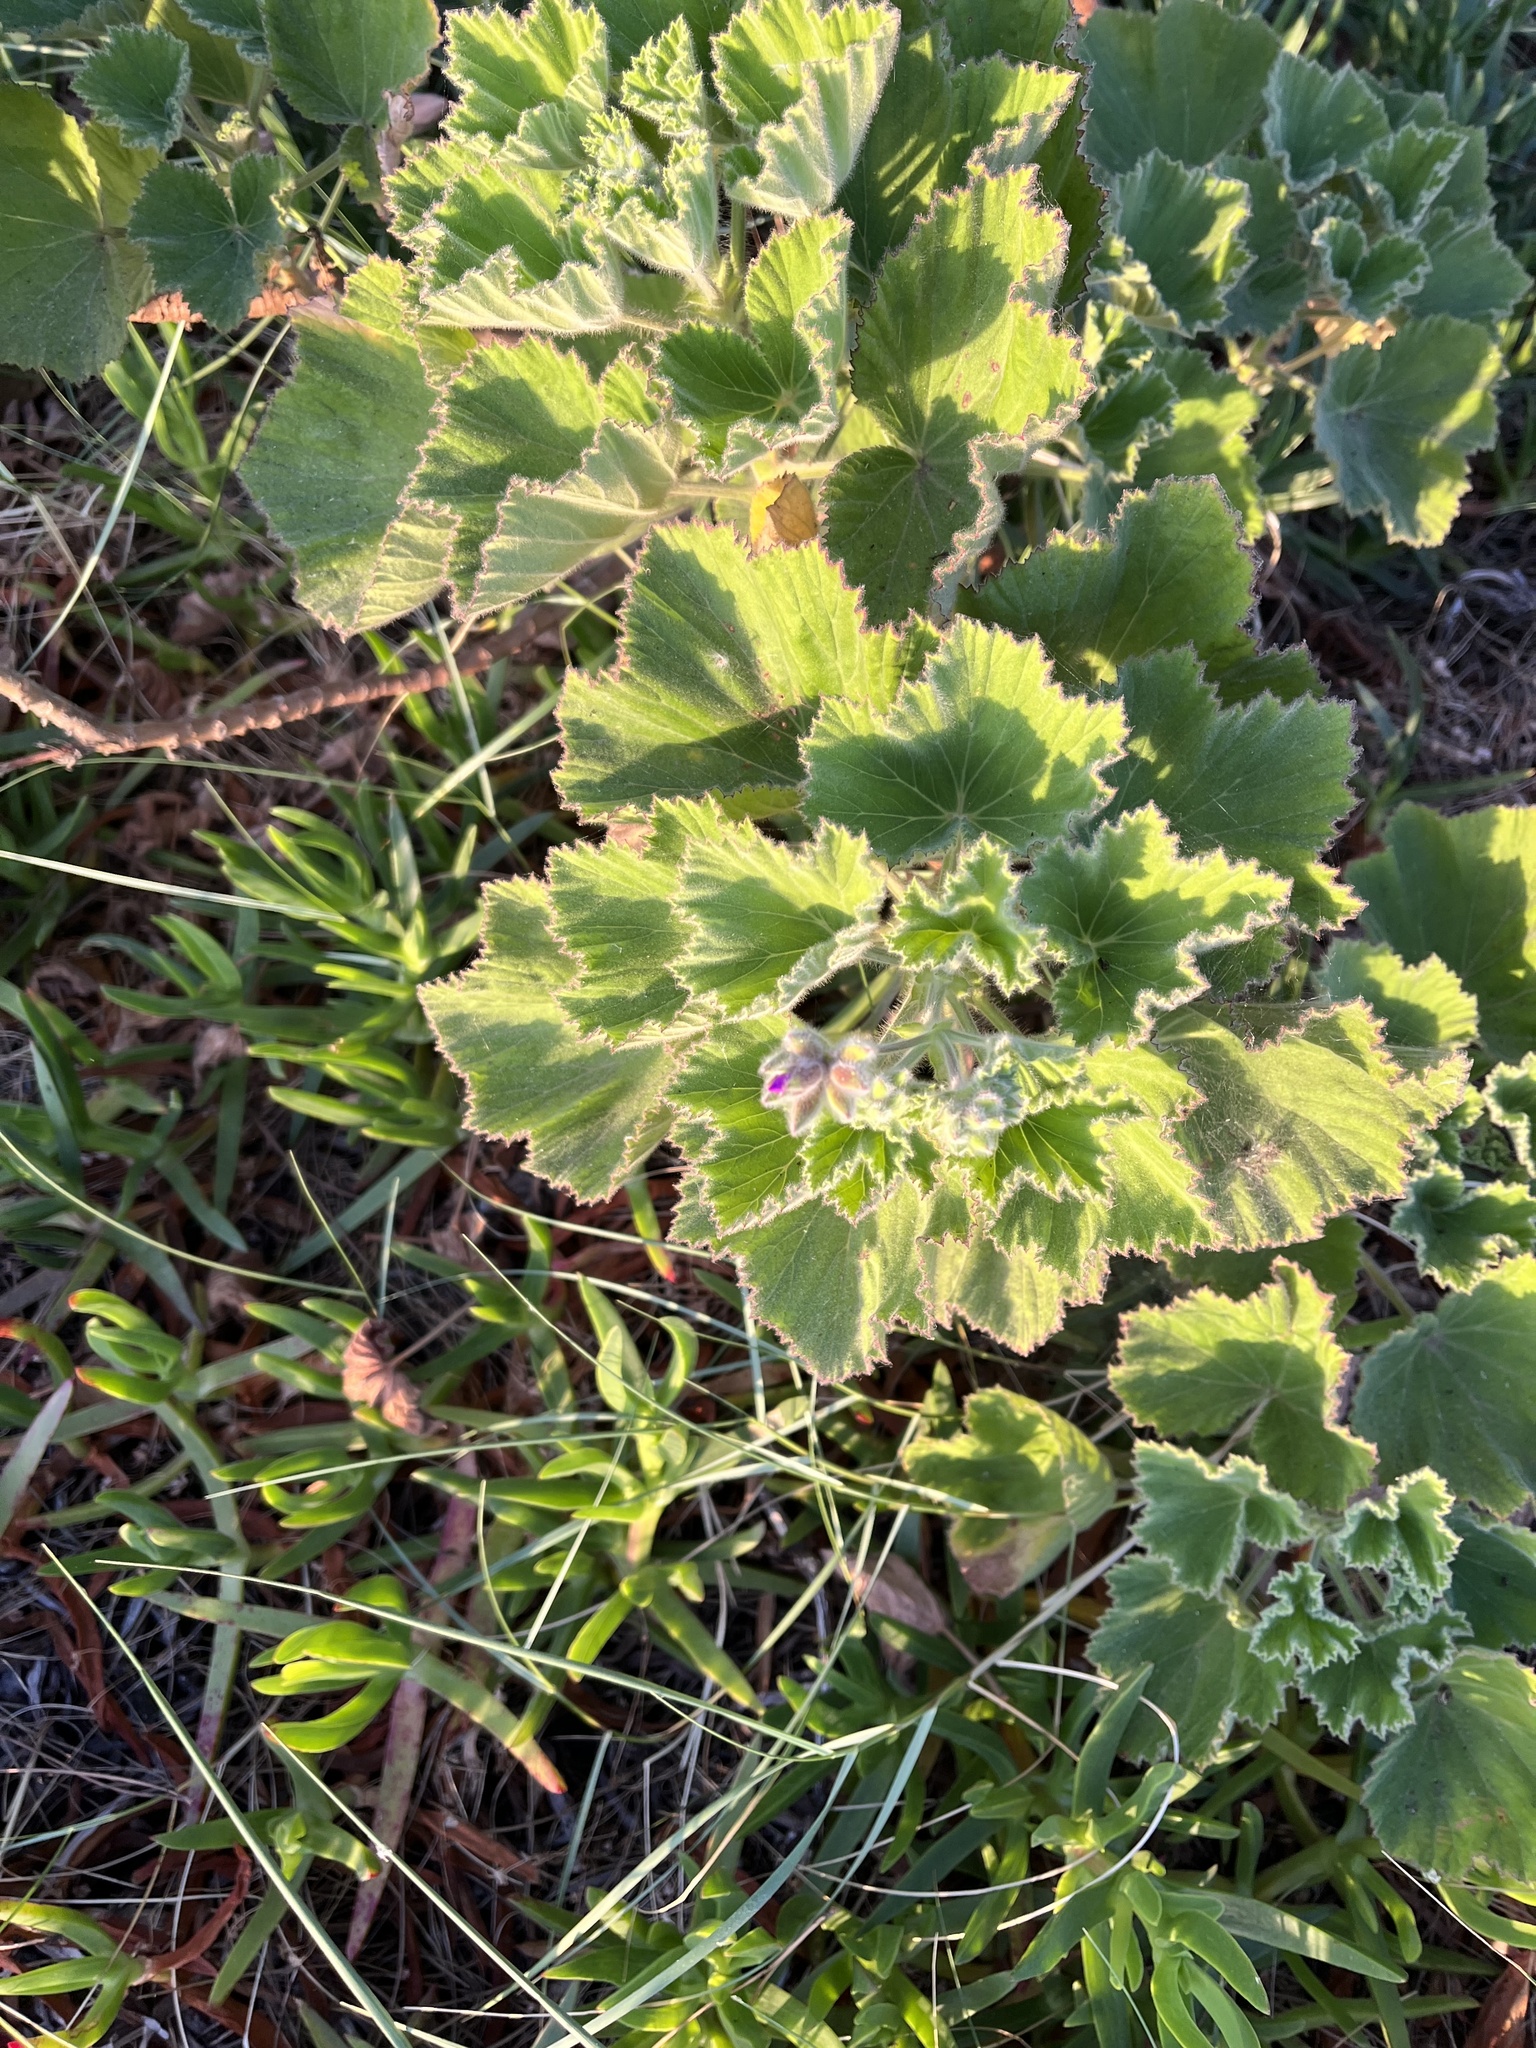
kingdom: Plantae
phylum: Tracheophyta
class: Magnoliopsida
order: Geraniales
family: Geraniaceae
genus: Pelargonium
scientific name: Pelargonium cucullatum
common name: Tree pelargonium
